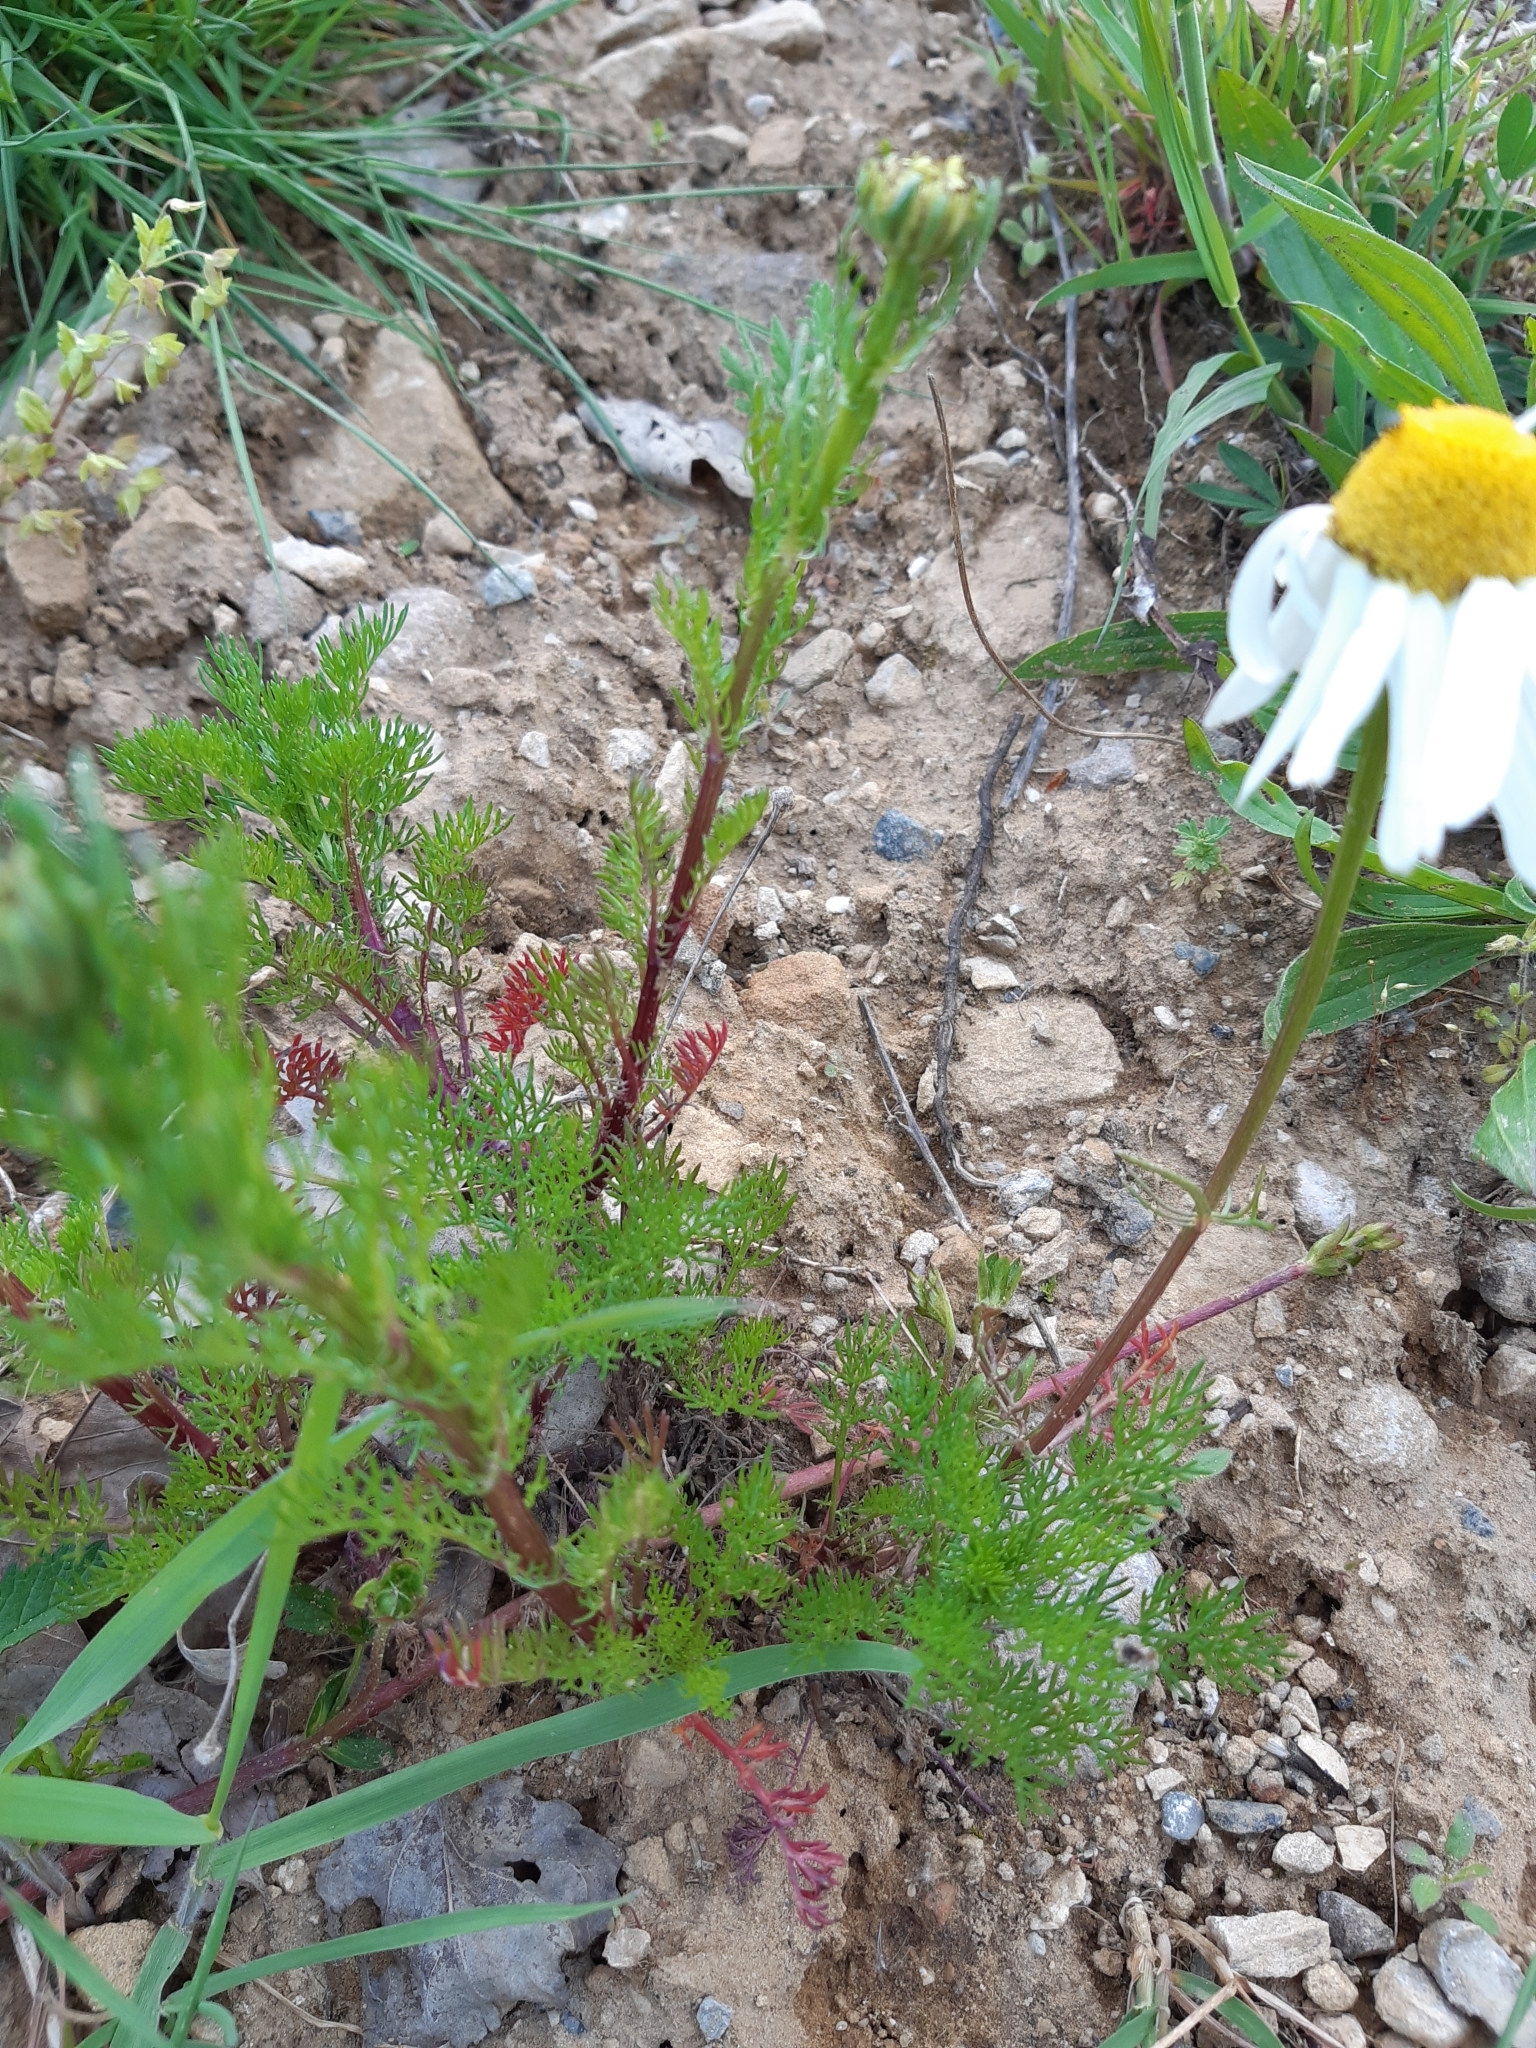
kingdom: Plantae
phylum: Tracheophyta
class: Magnoliopsida
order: Asterales
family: Asteraceae
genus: Tripleurospermum
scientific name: Tripleurospermum inodorum
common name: Scentless mayweed
